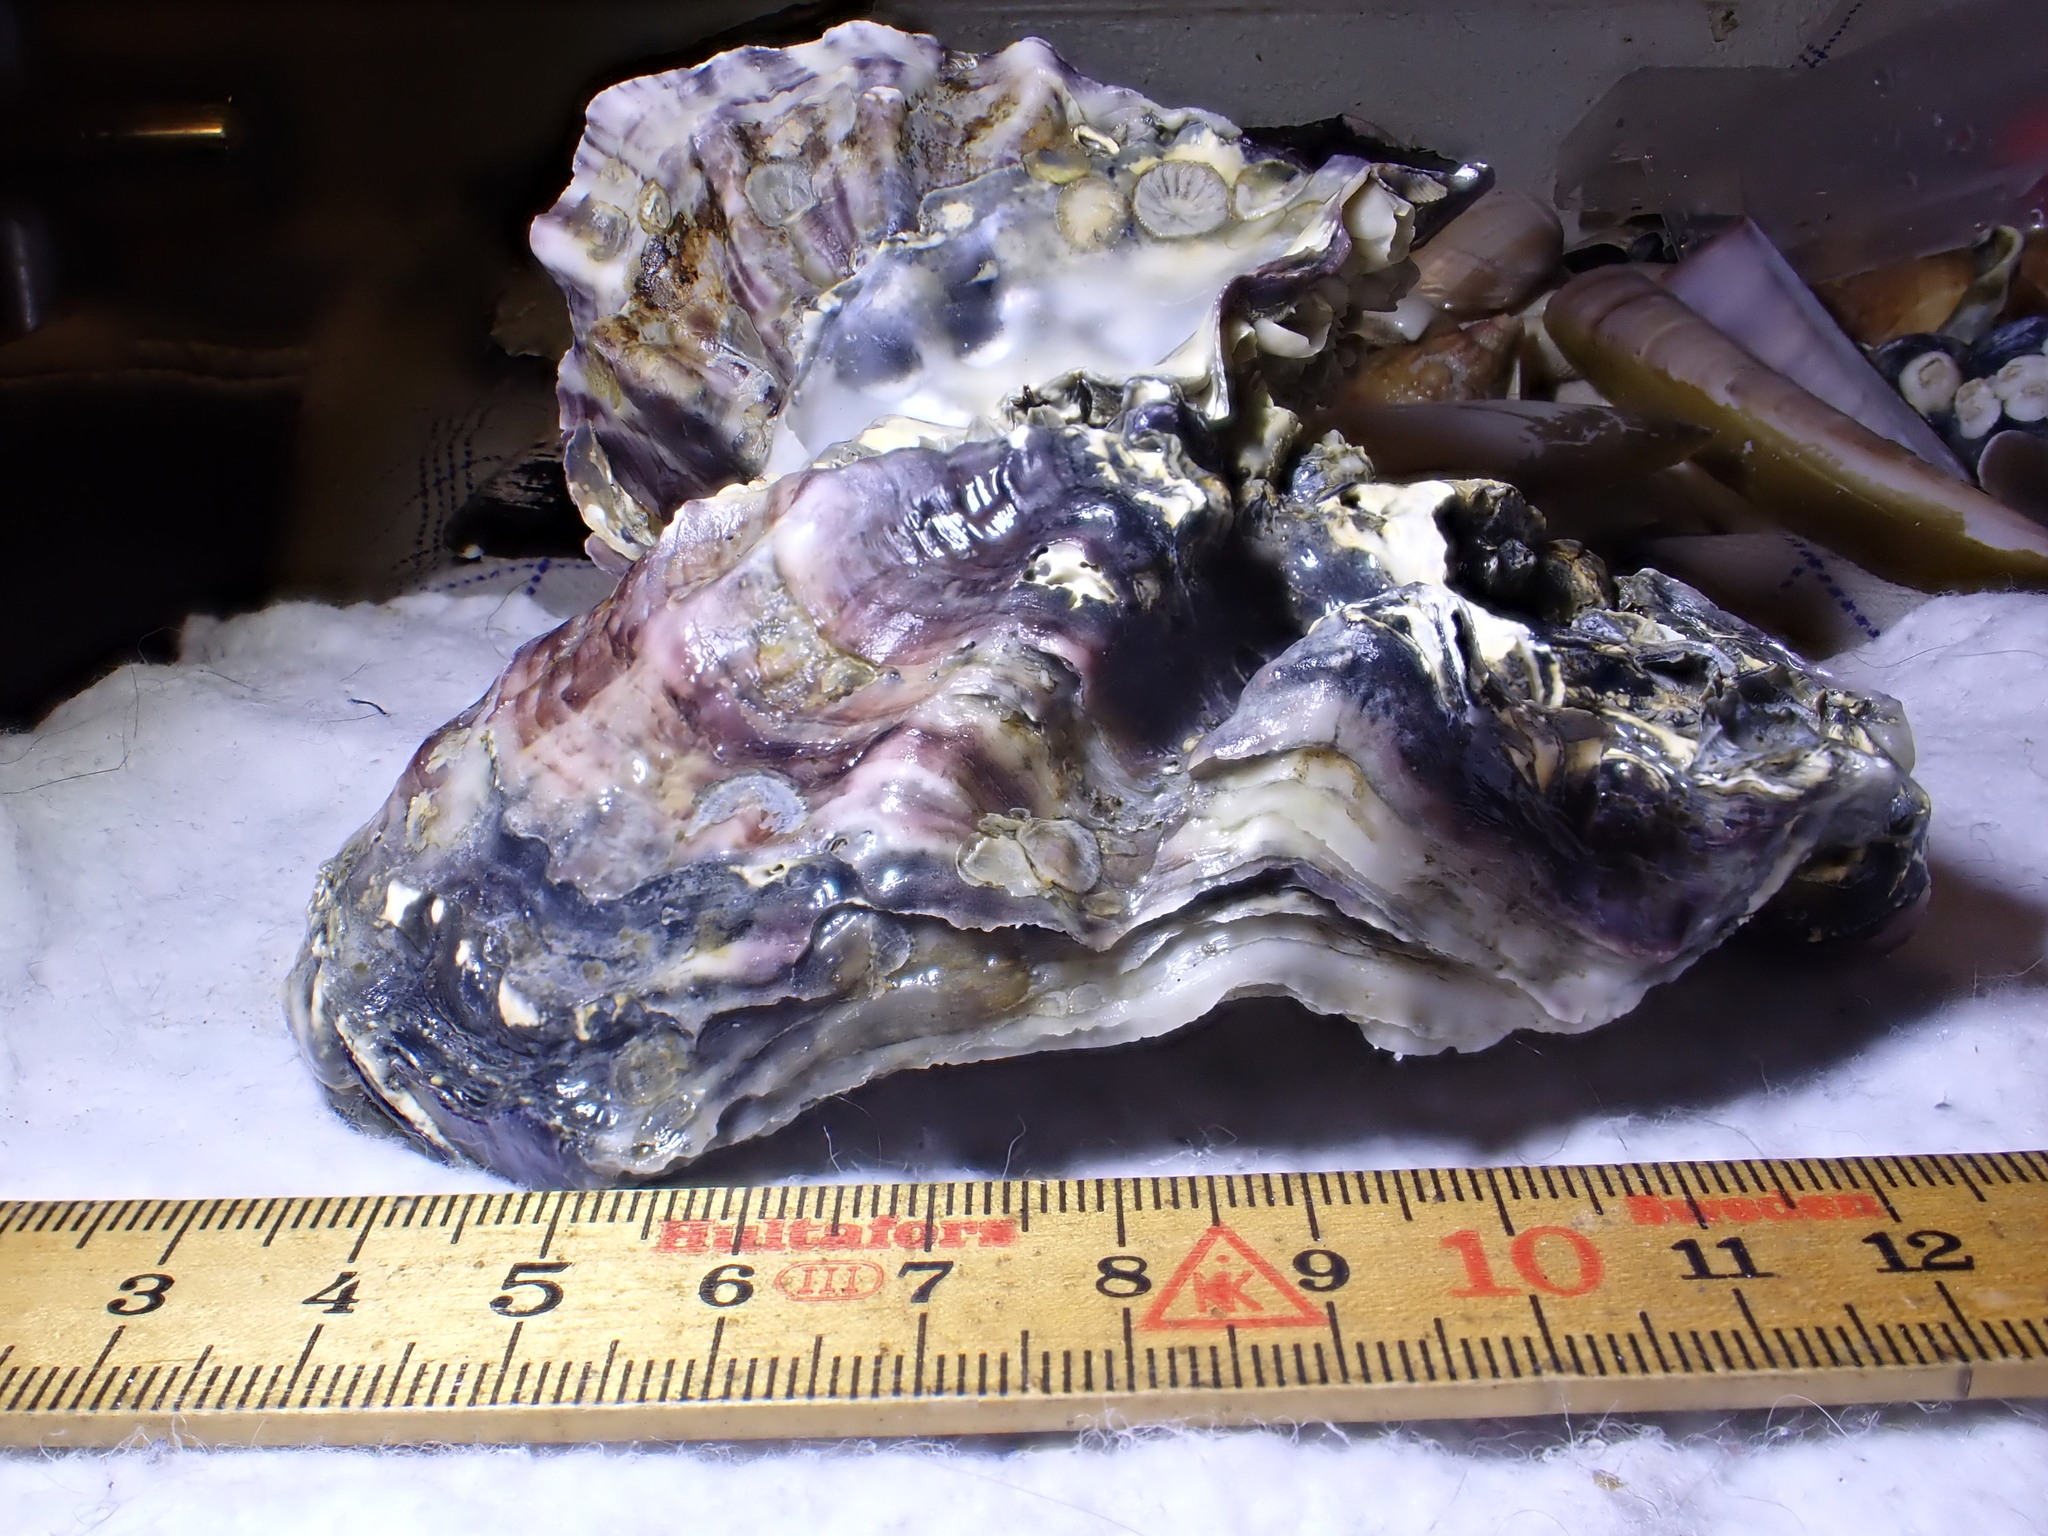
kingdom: Animalia
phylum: Mollusca
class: Bivalvia
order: Ostreida
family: Ostreidae
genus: Magallana
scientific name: Magallana gigas
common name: Pacific oyster
